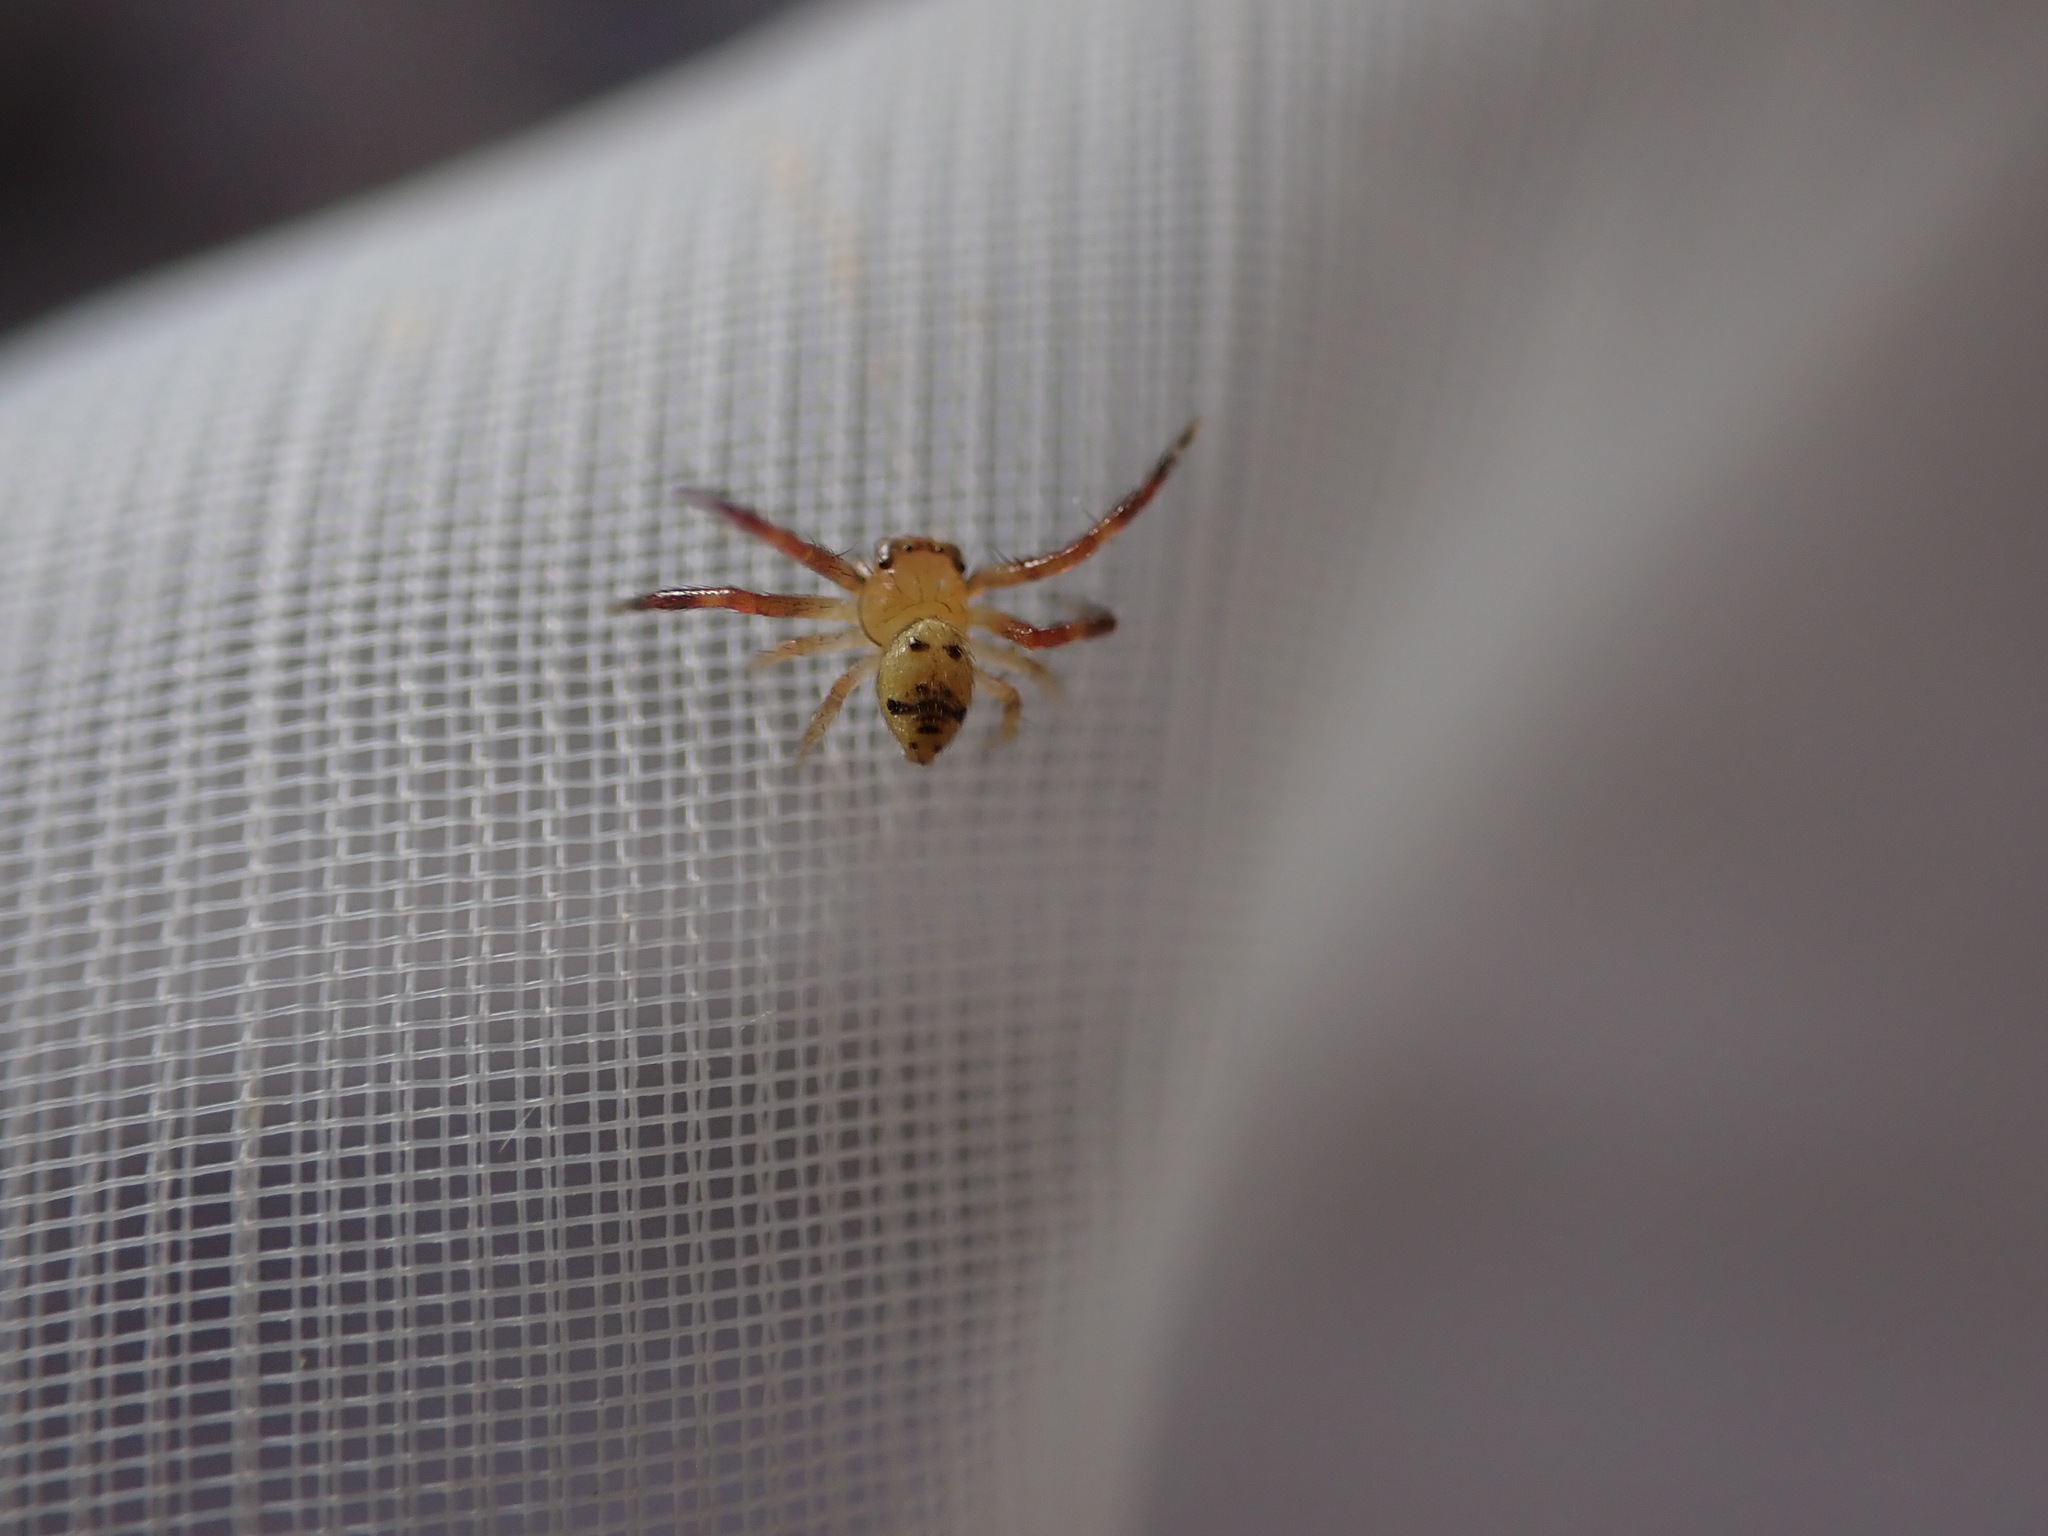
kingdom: Animalia
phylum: Arthropoda
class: Arachnida
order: Araneae
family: Thomisidae
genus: Synema
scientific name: Synema globosum
